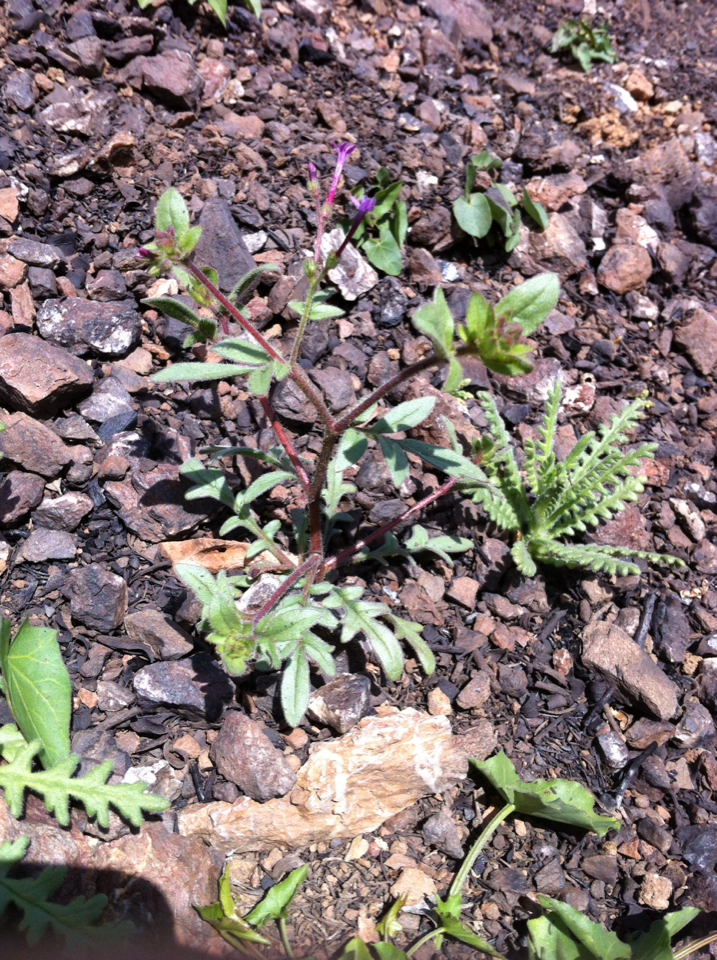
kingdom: Plantae
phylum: Tracheophyta
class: Magnoliopsida
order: Ericales
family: Polemoniaceae
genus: Allophyllum
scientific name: Allophyllum divaricatum
